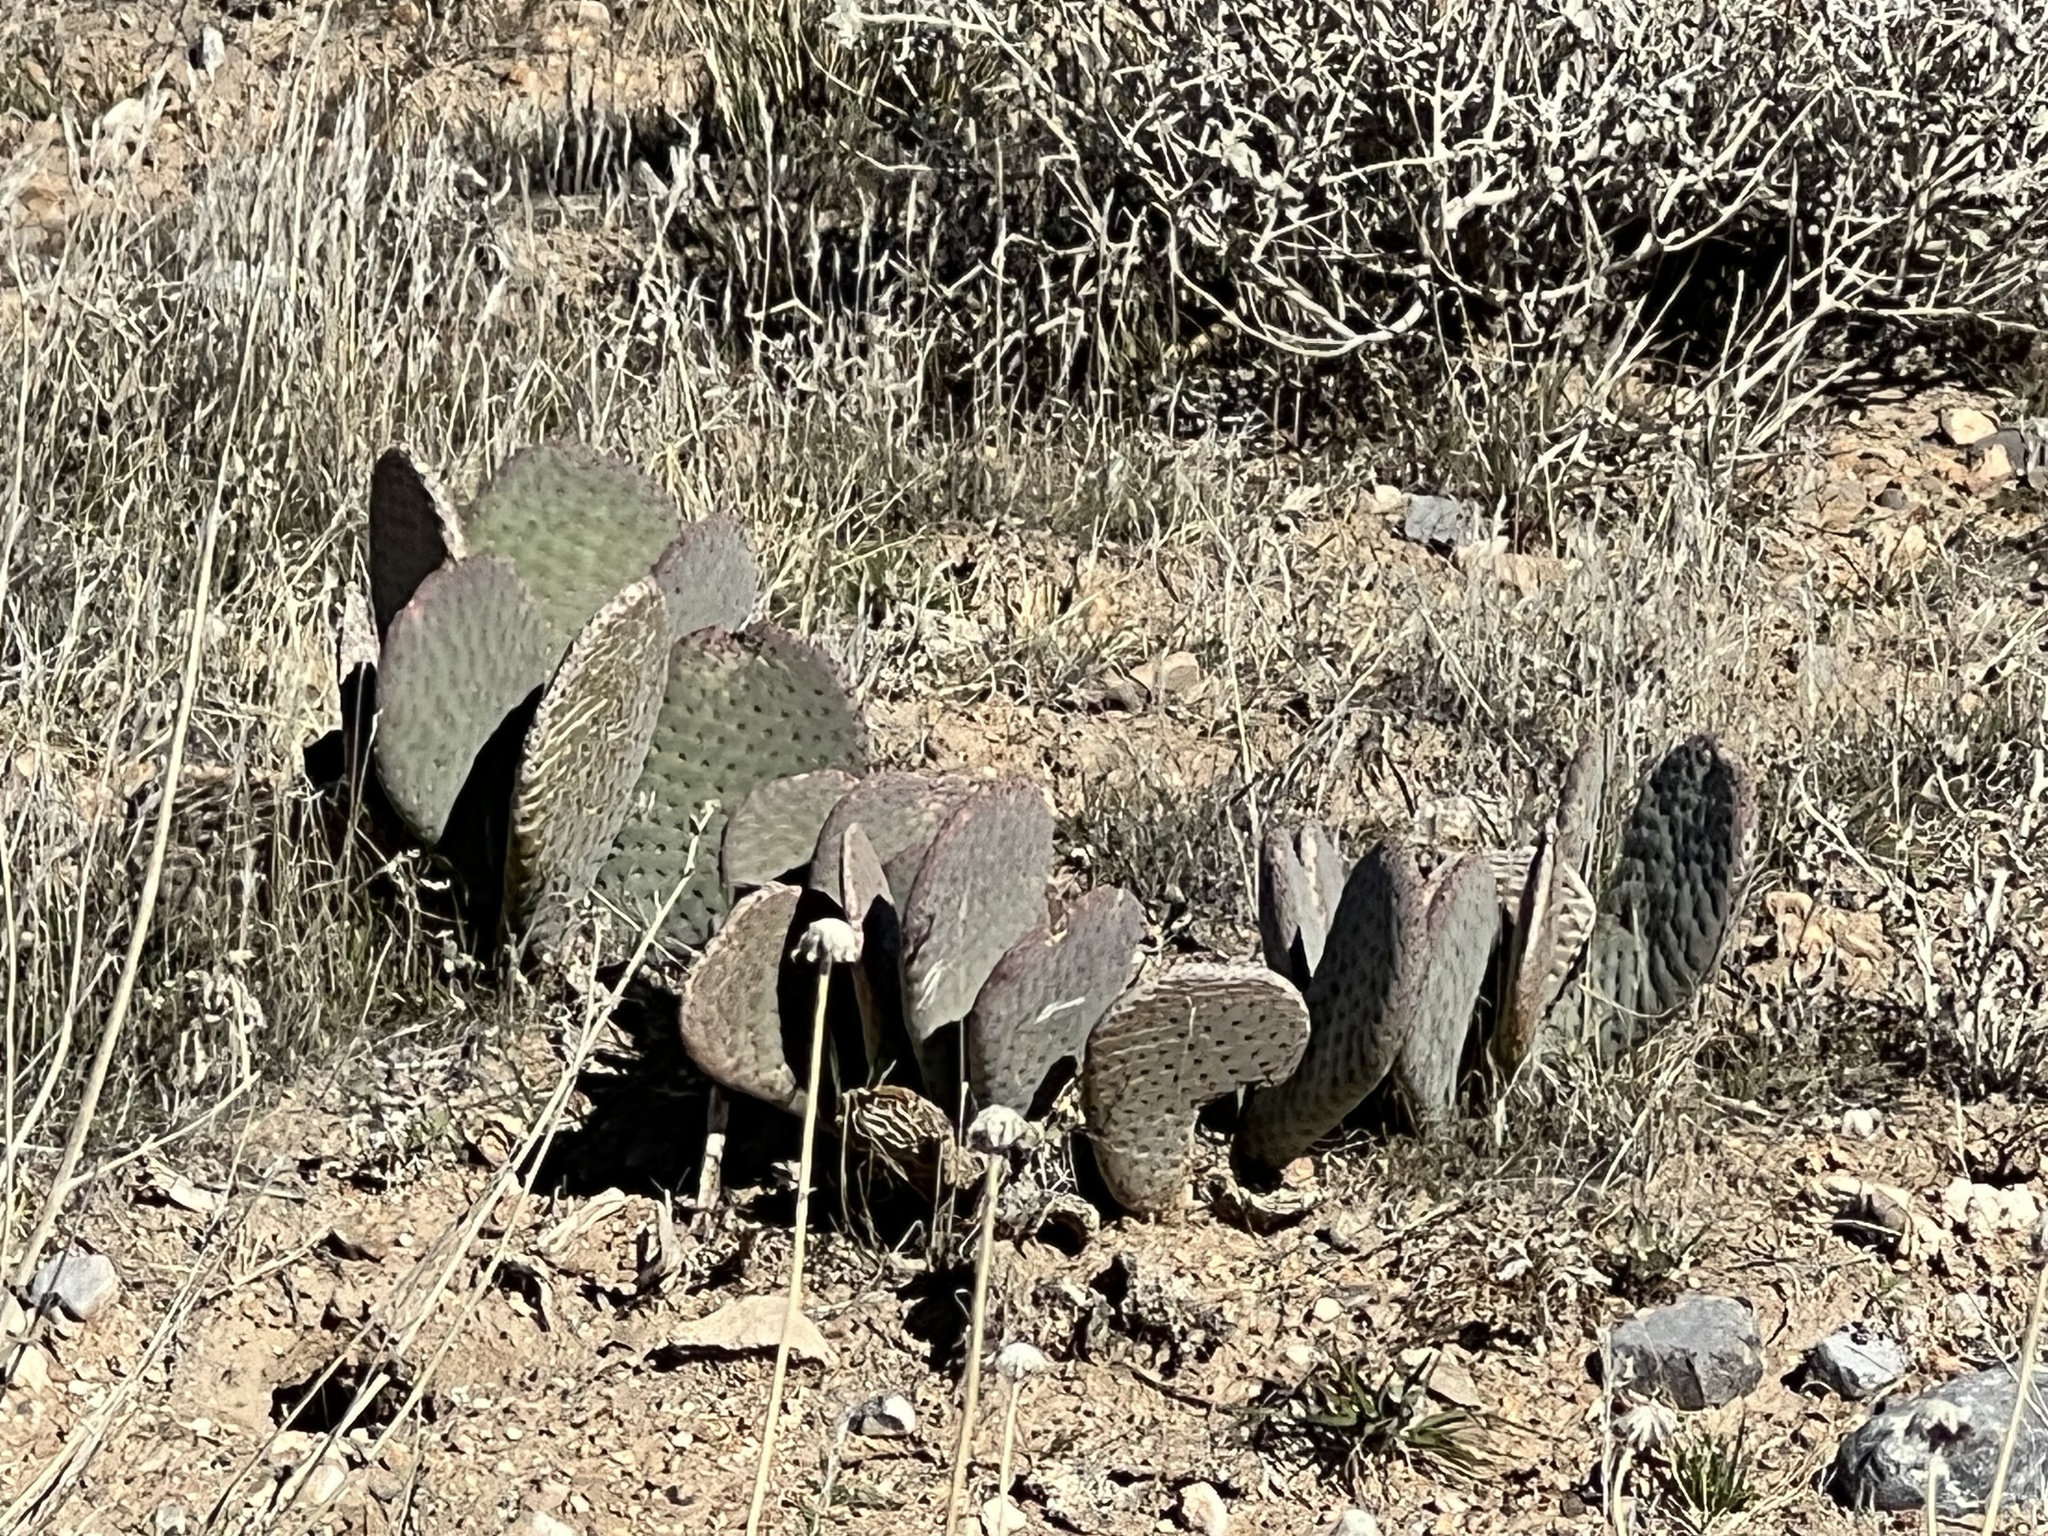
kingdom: Plantae
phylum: Tracheophyta
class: Magnoliopsida
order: Caryophyllales
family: Cactaceae
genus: Opuntia
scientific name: Opuntia basilaris
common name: Beavertail prickly-pear
